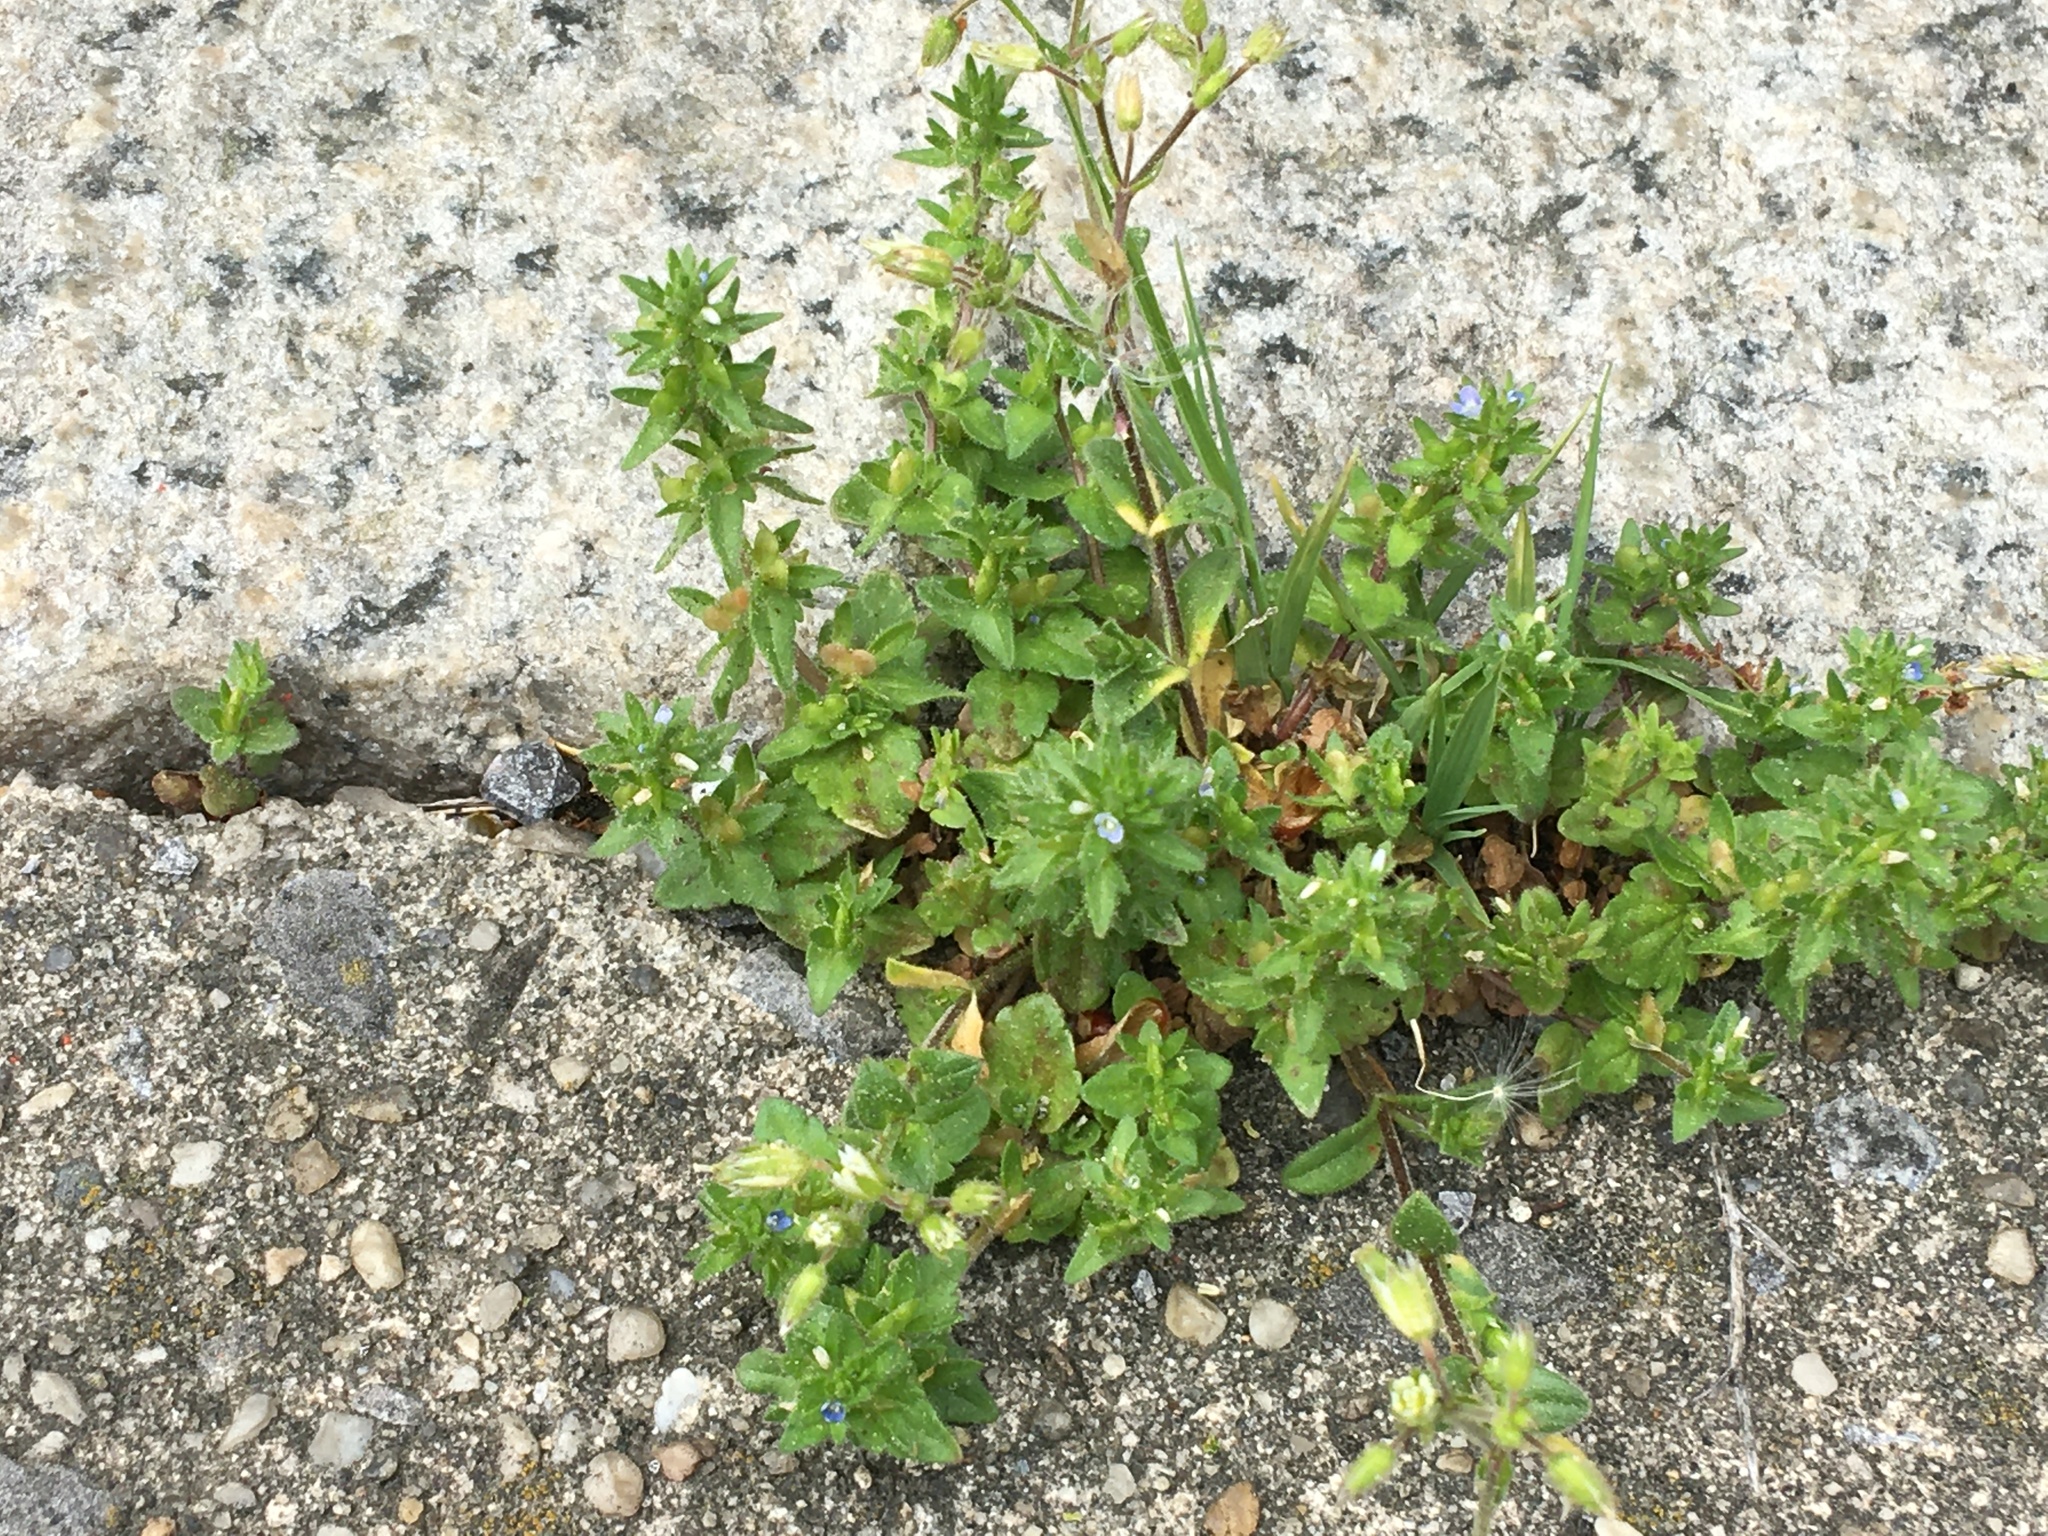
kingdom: Plantae
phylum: Tracheophyta
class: Magnoliopsida
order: Lamiales
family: Plantaginaceae
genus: Veronica
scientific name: Veronica arvensis
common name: Corn speedwell
